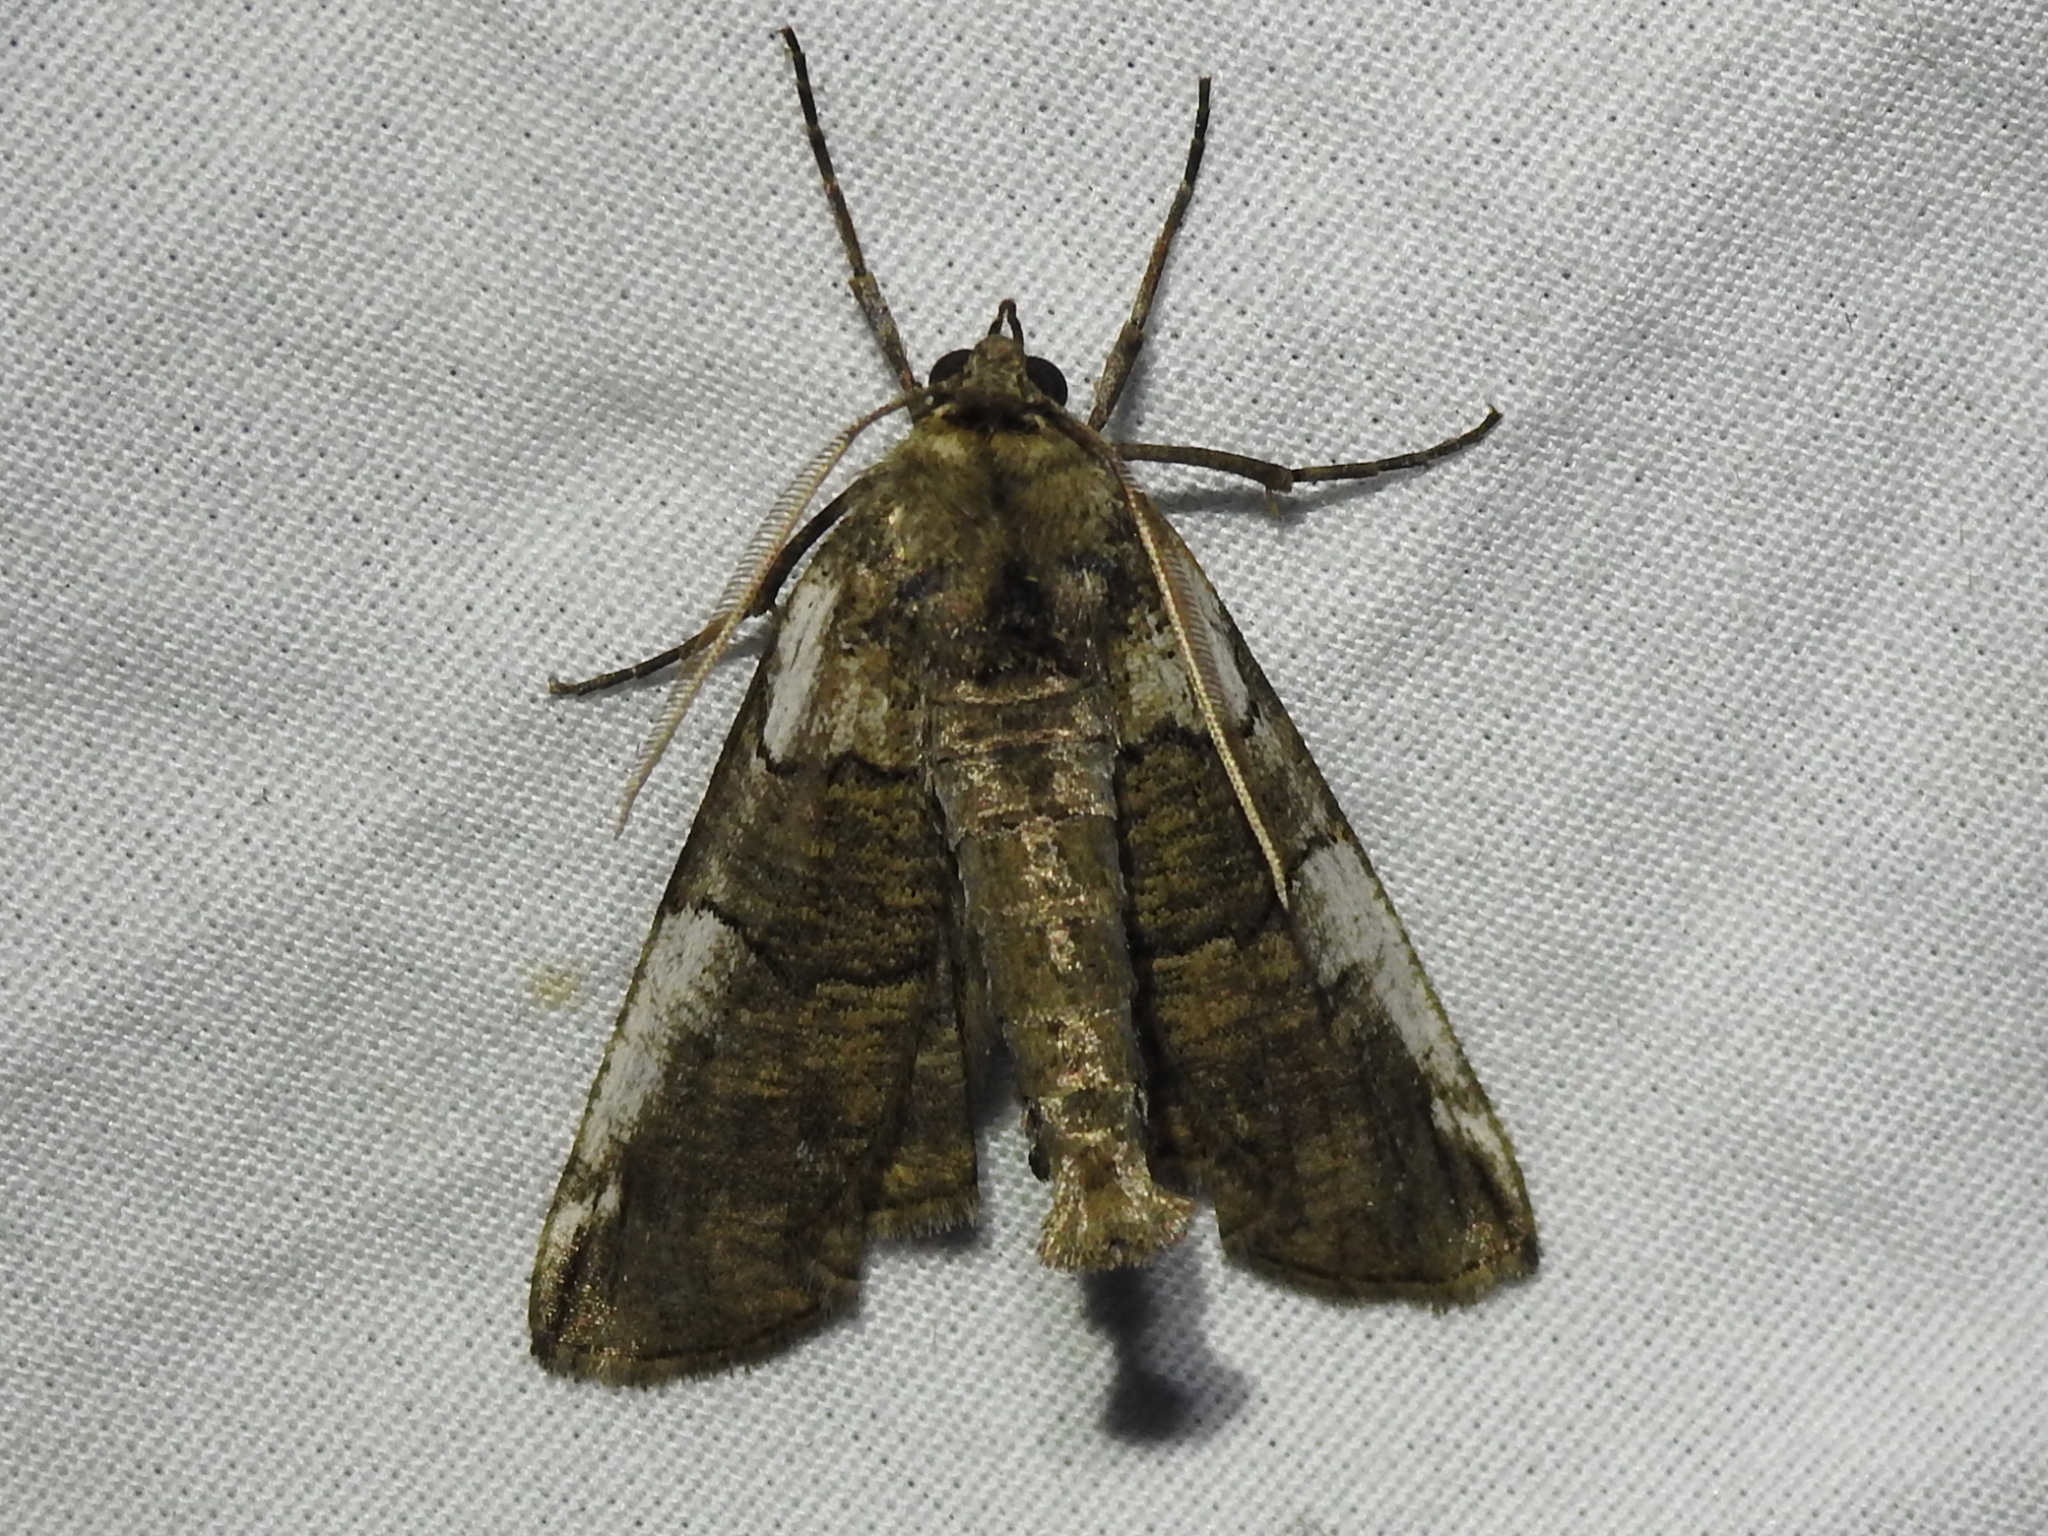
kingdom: Animalia
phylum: Arthropoda
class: Insecta
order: Lepidoptera
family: Geometridae
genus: Ceratonyx
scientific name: Ceratonyx satanaria
